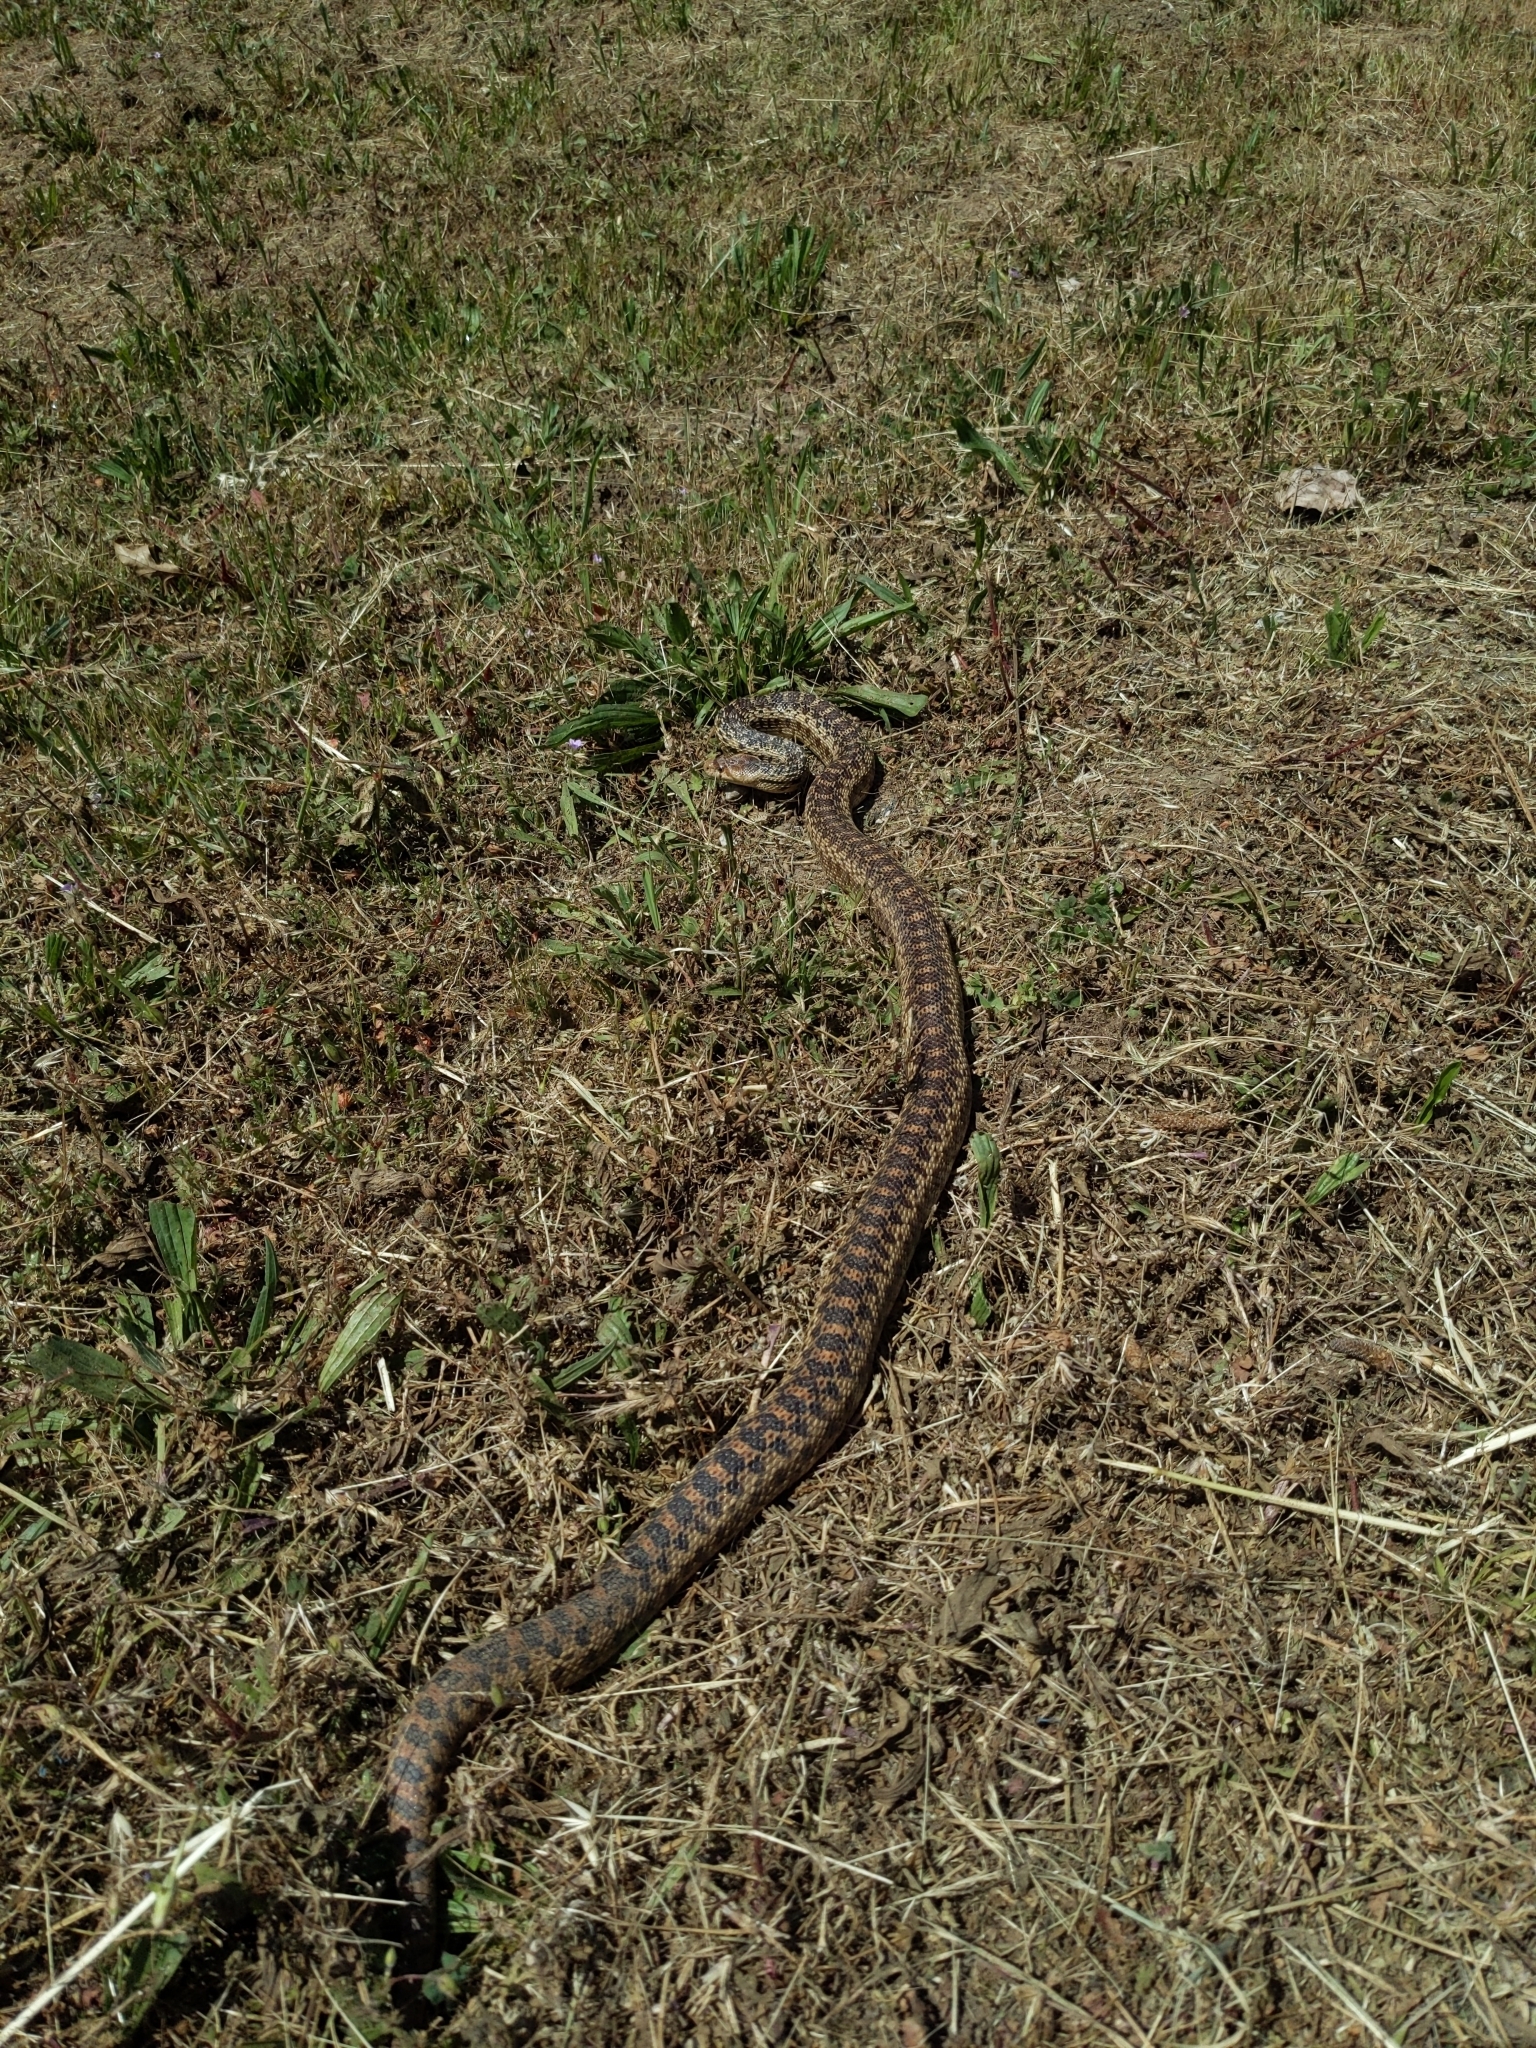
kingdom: Animalia
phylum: Chordata
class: Squamata
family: Colubridae
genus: Pituophis
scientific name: Pituophis catenifer
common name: Gopher snake
